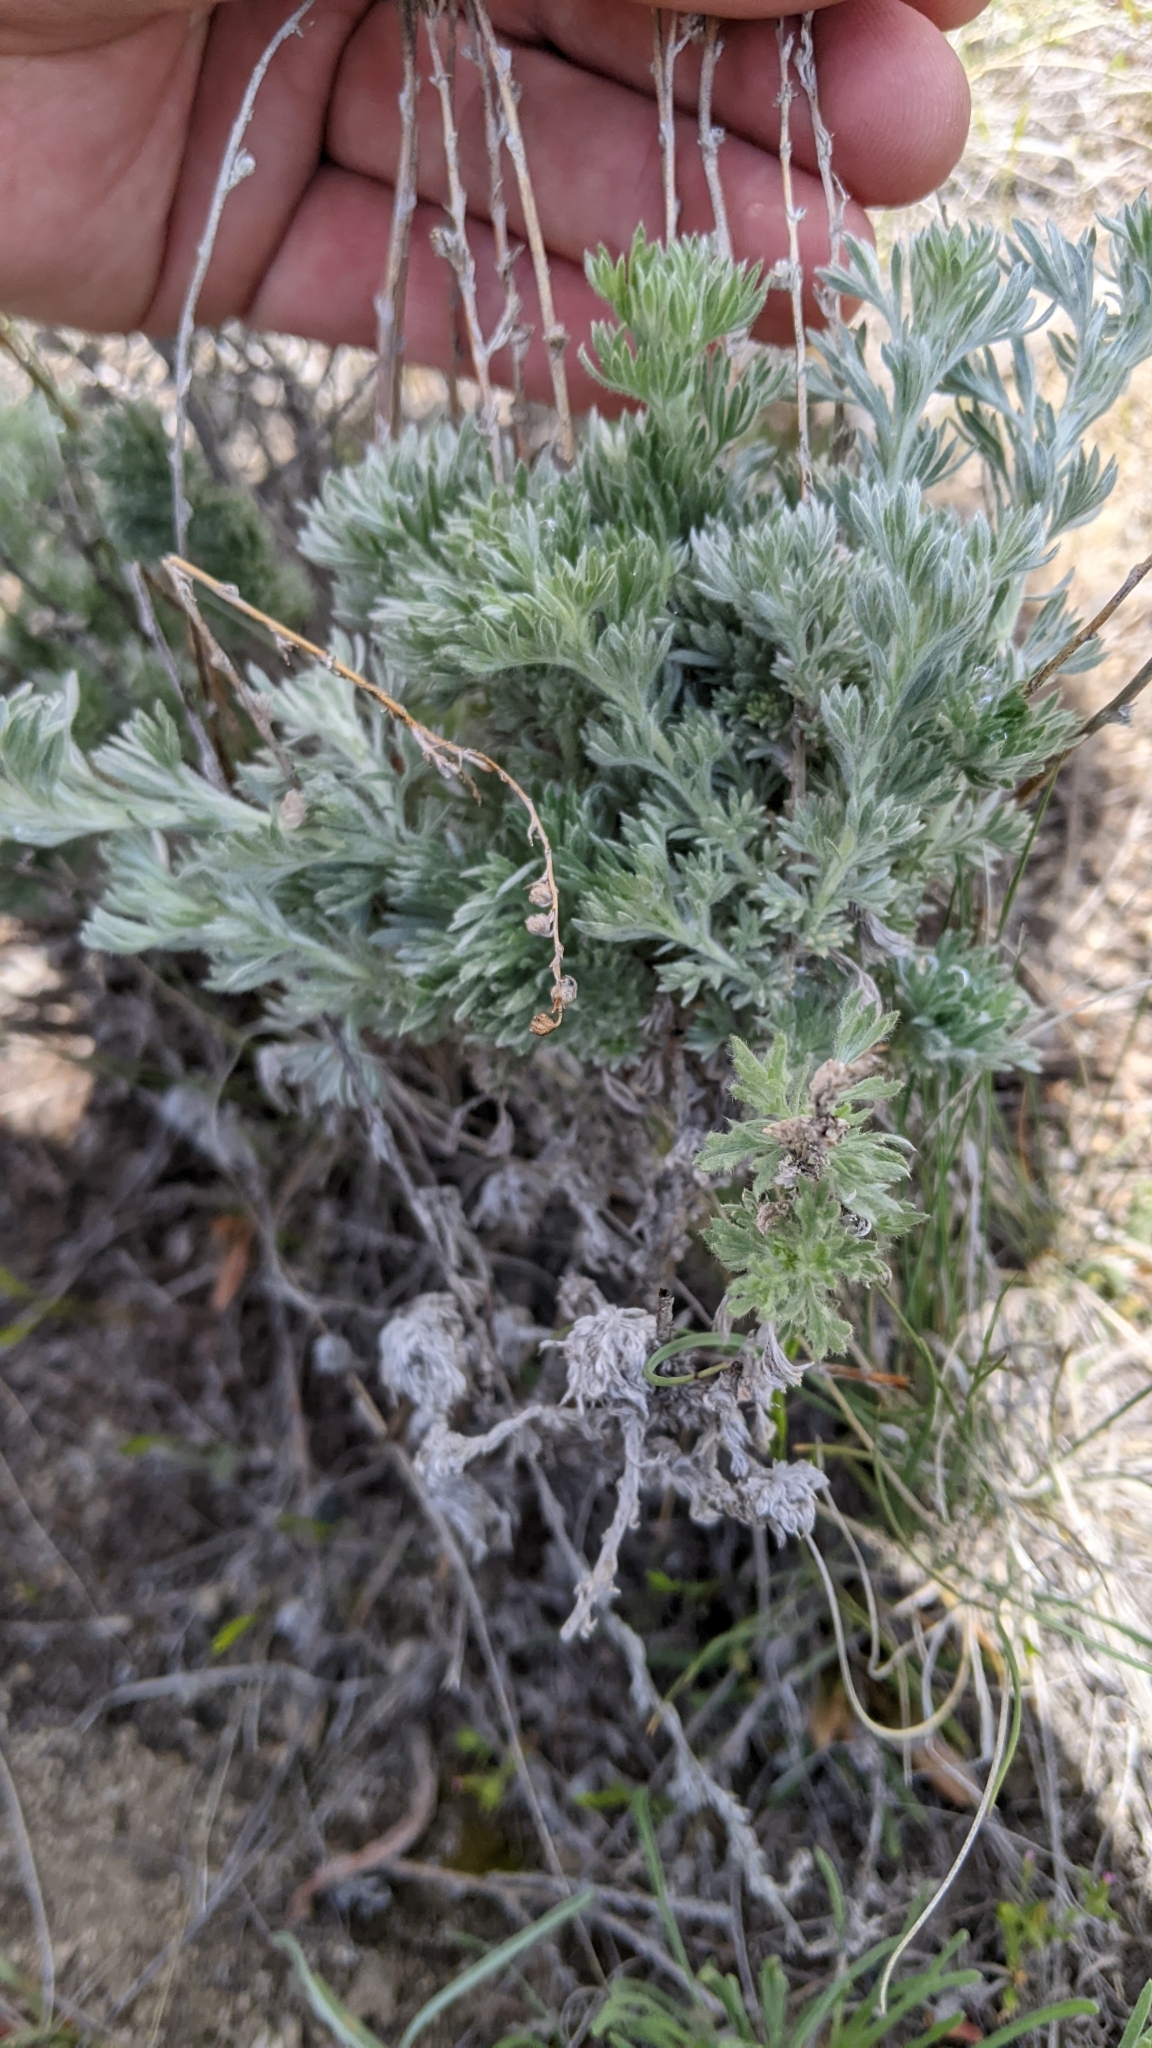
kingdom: Plantae
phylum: Tracheophyta
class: Magnoliopsida
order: Asterales
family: Asteraceae
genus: Artemisia
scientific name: Artemisia frigida
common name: Prairie sagewort
